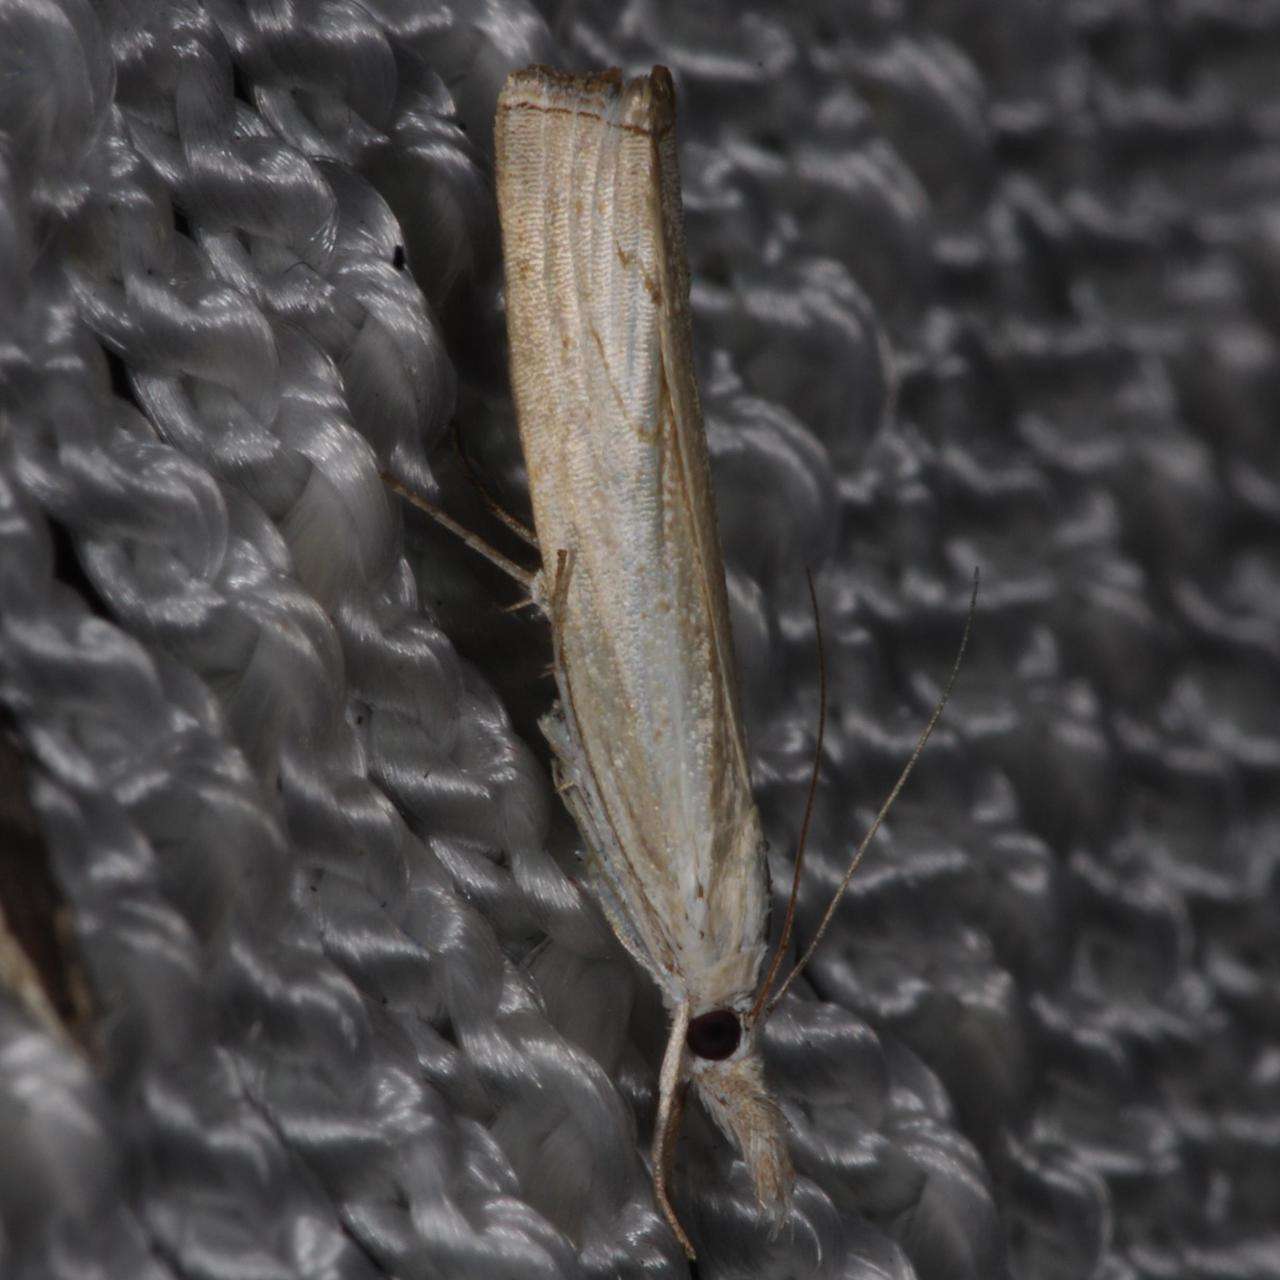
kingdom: Animalia
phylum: Arthropoda
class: Insecta
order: Lepidoptera
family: Crambidae
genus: Culladia
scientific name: Culladia cuneiferellus
